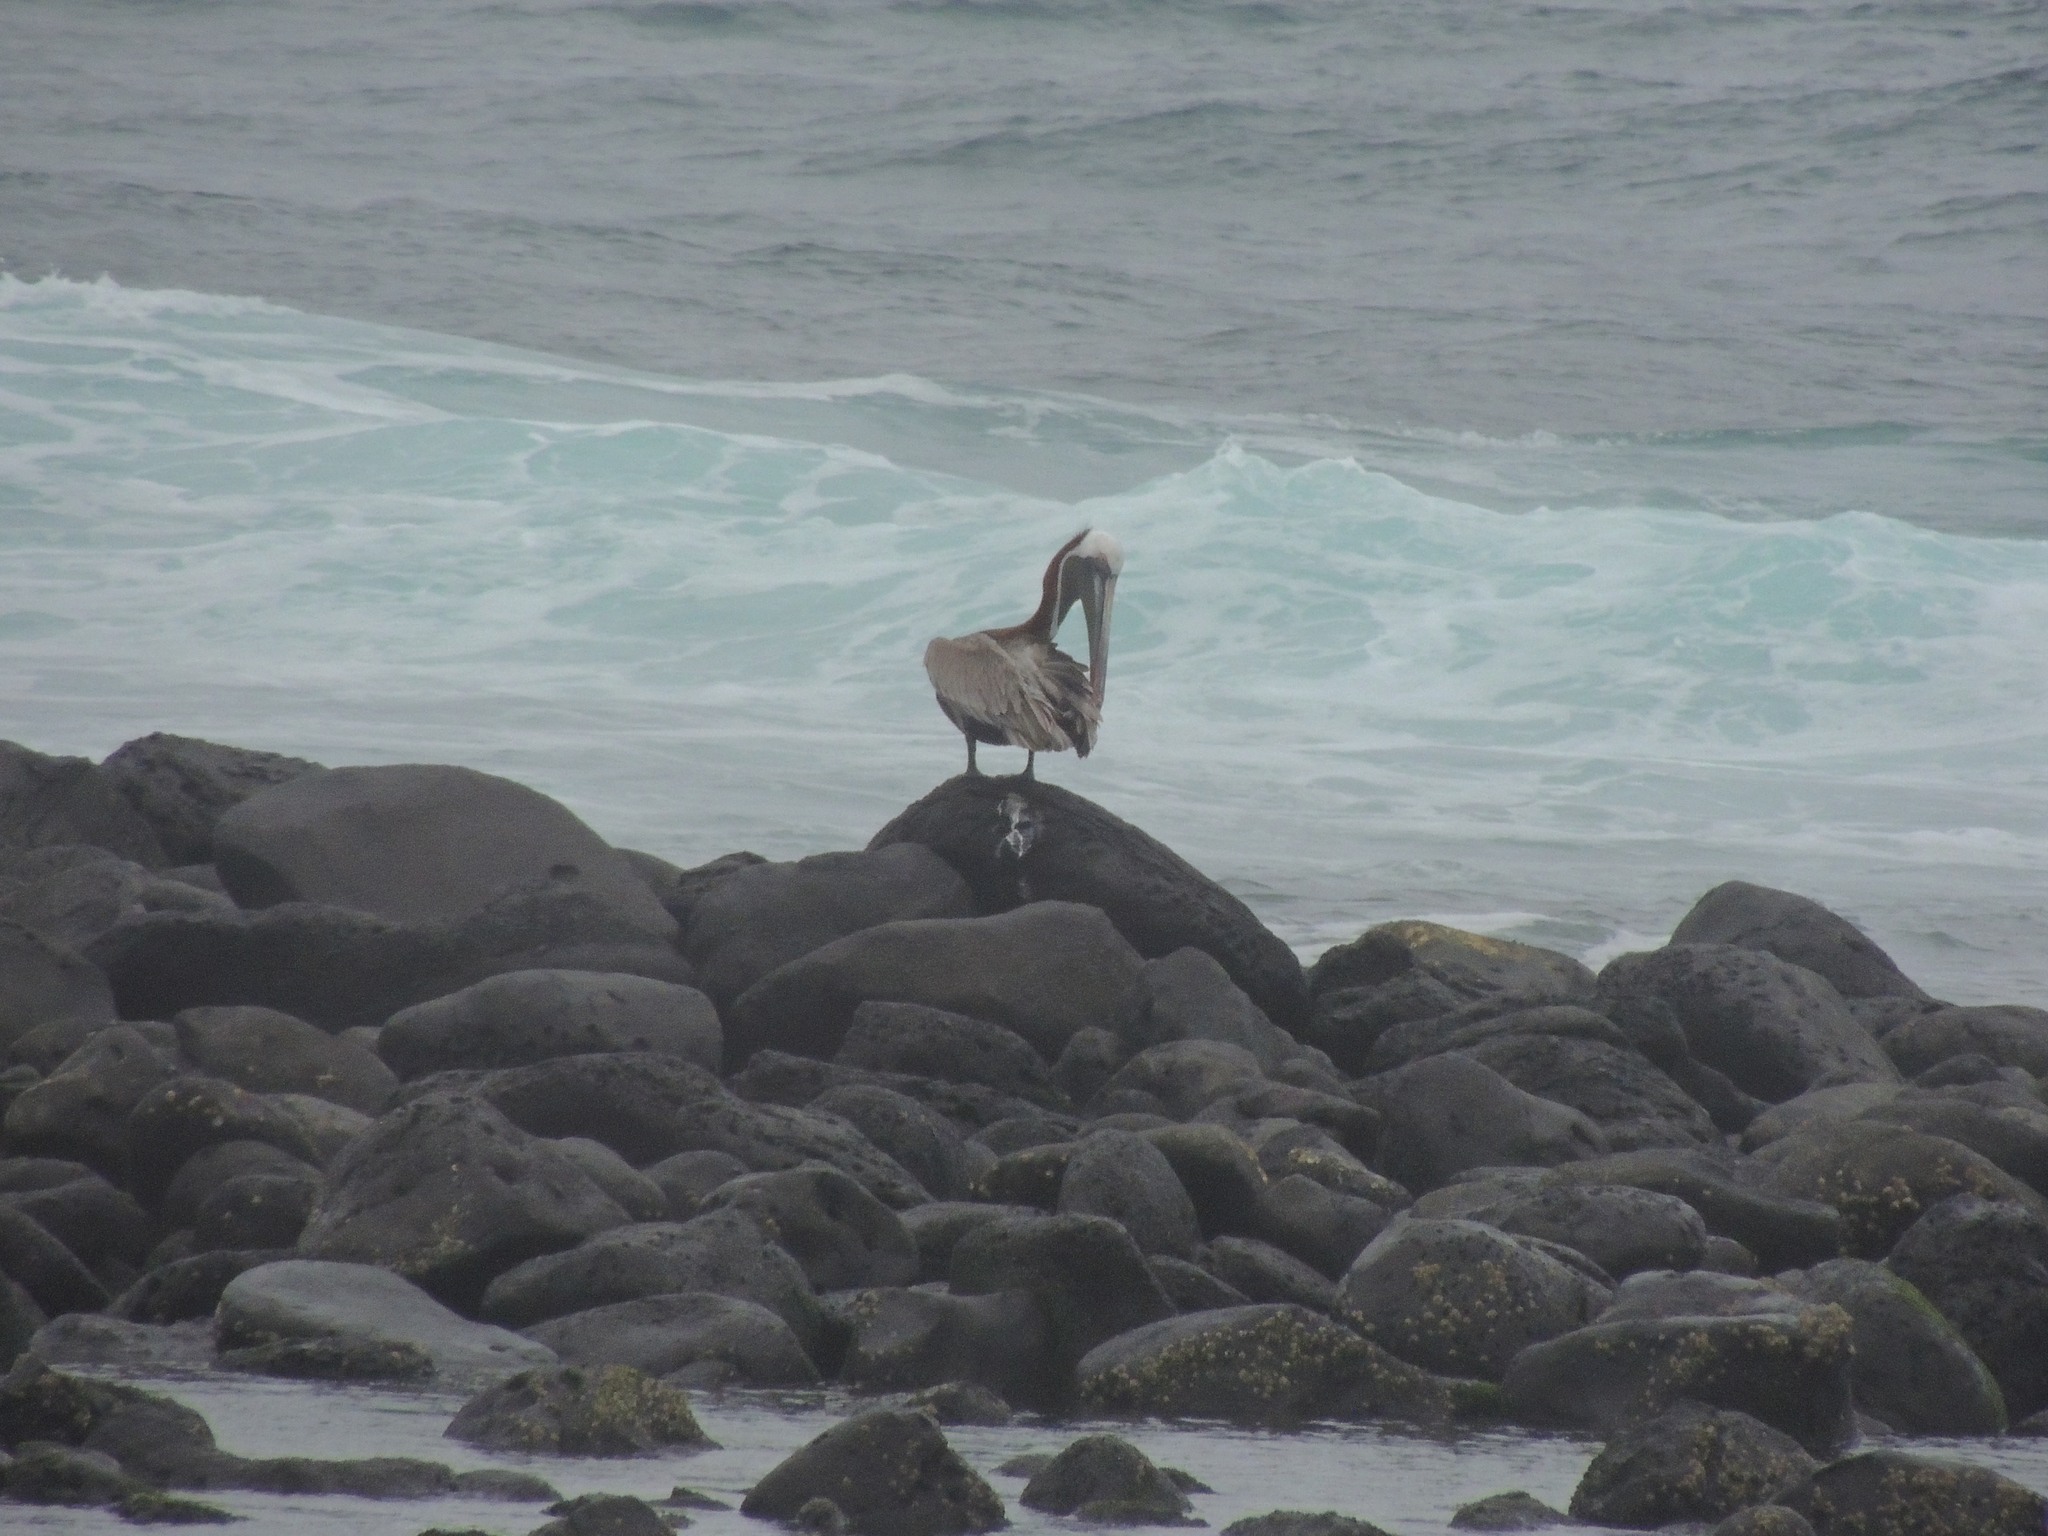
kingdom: Animalia
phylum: Chordata
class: Aves
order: Pelecaniformes
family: Pelecanidae
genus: Pelecanus
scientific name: Pelecanus occidentalis
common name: Brown pelican
